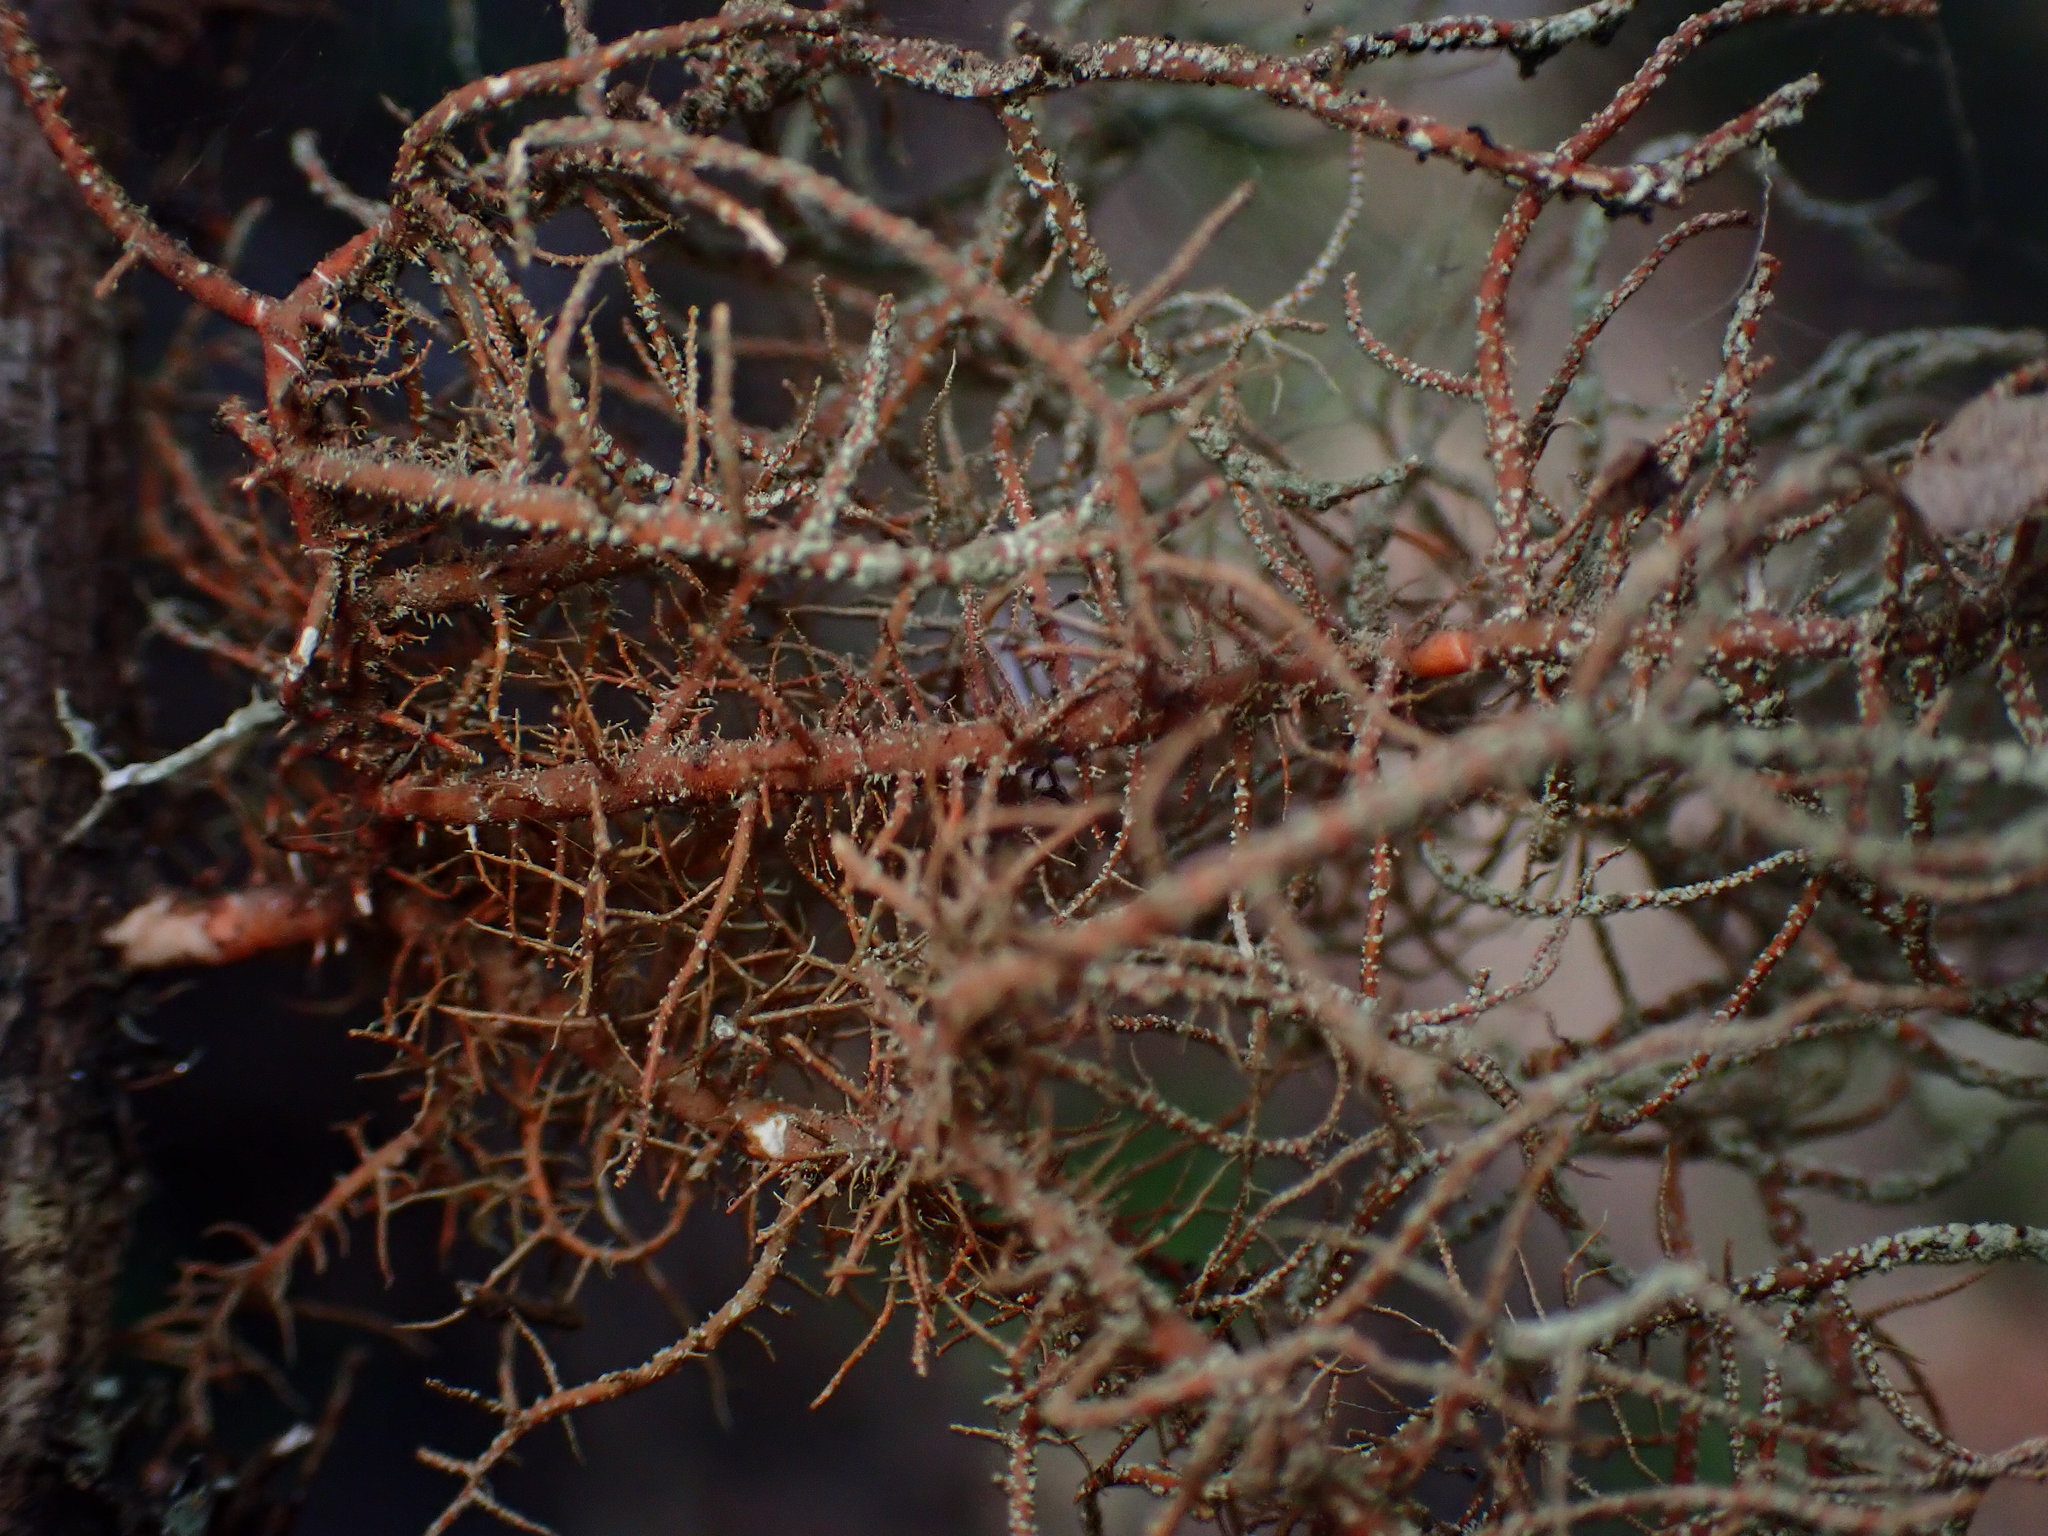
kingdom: Fungi
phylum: Ascomycota
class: Lecanoromycetes
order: Lecanorales
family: Parmeliaceae
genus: Usnea
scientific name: Usnea rubicunda
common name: Red beard lichen
